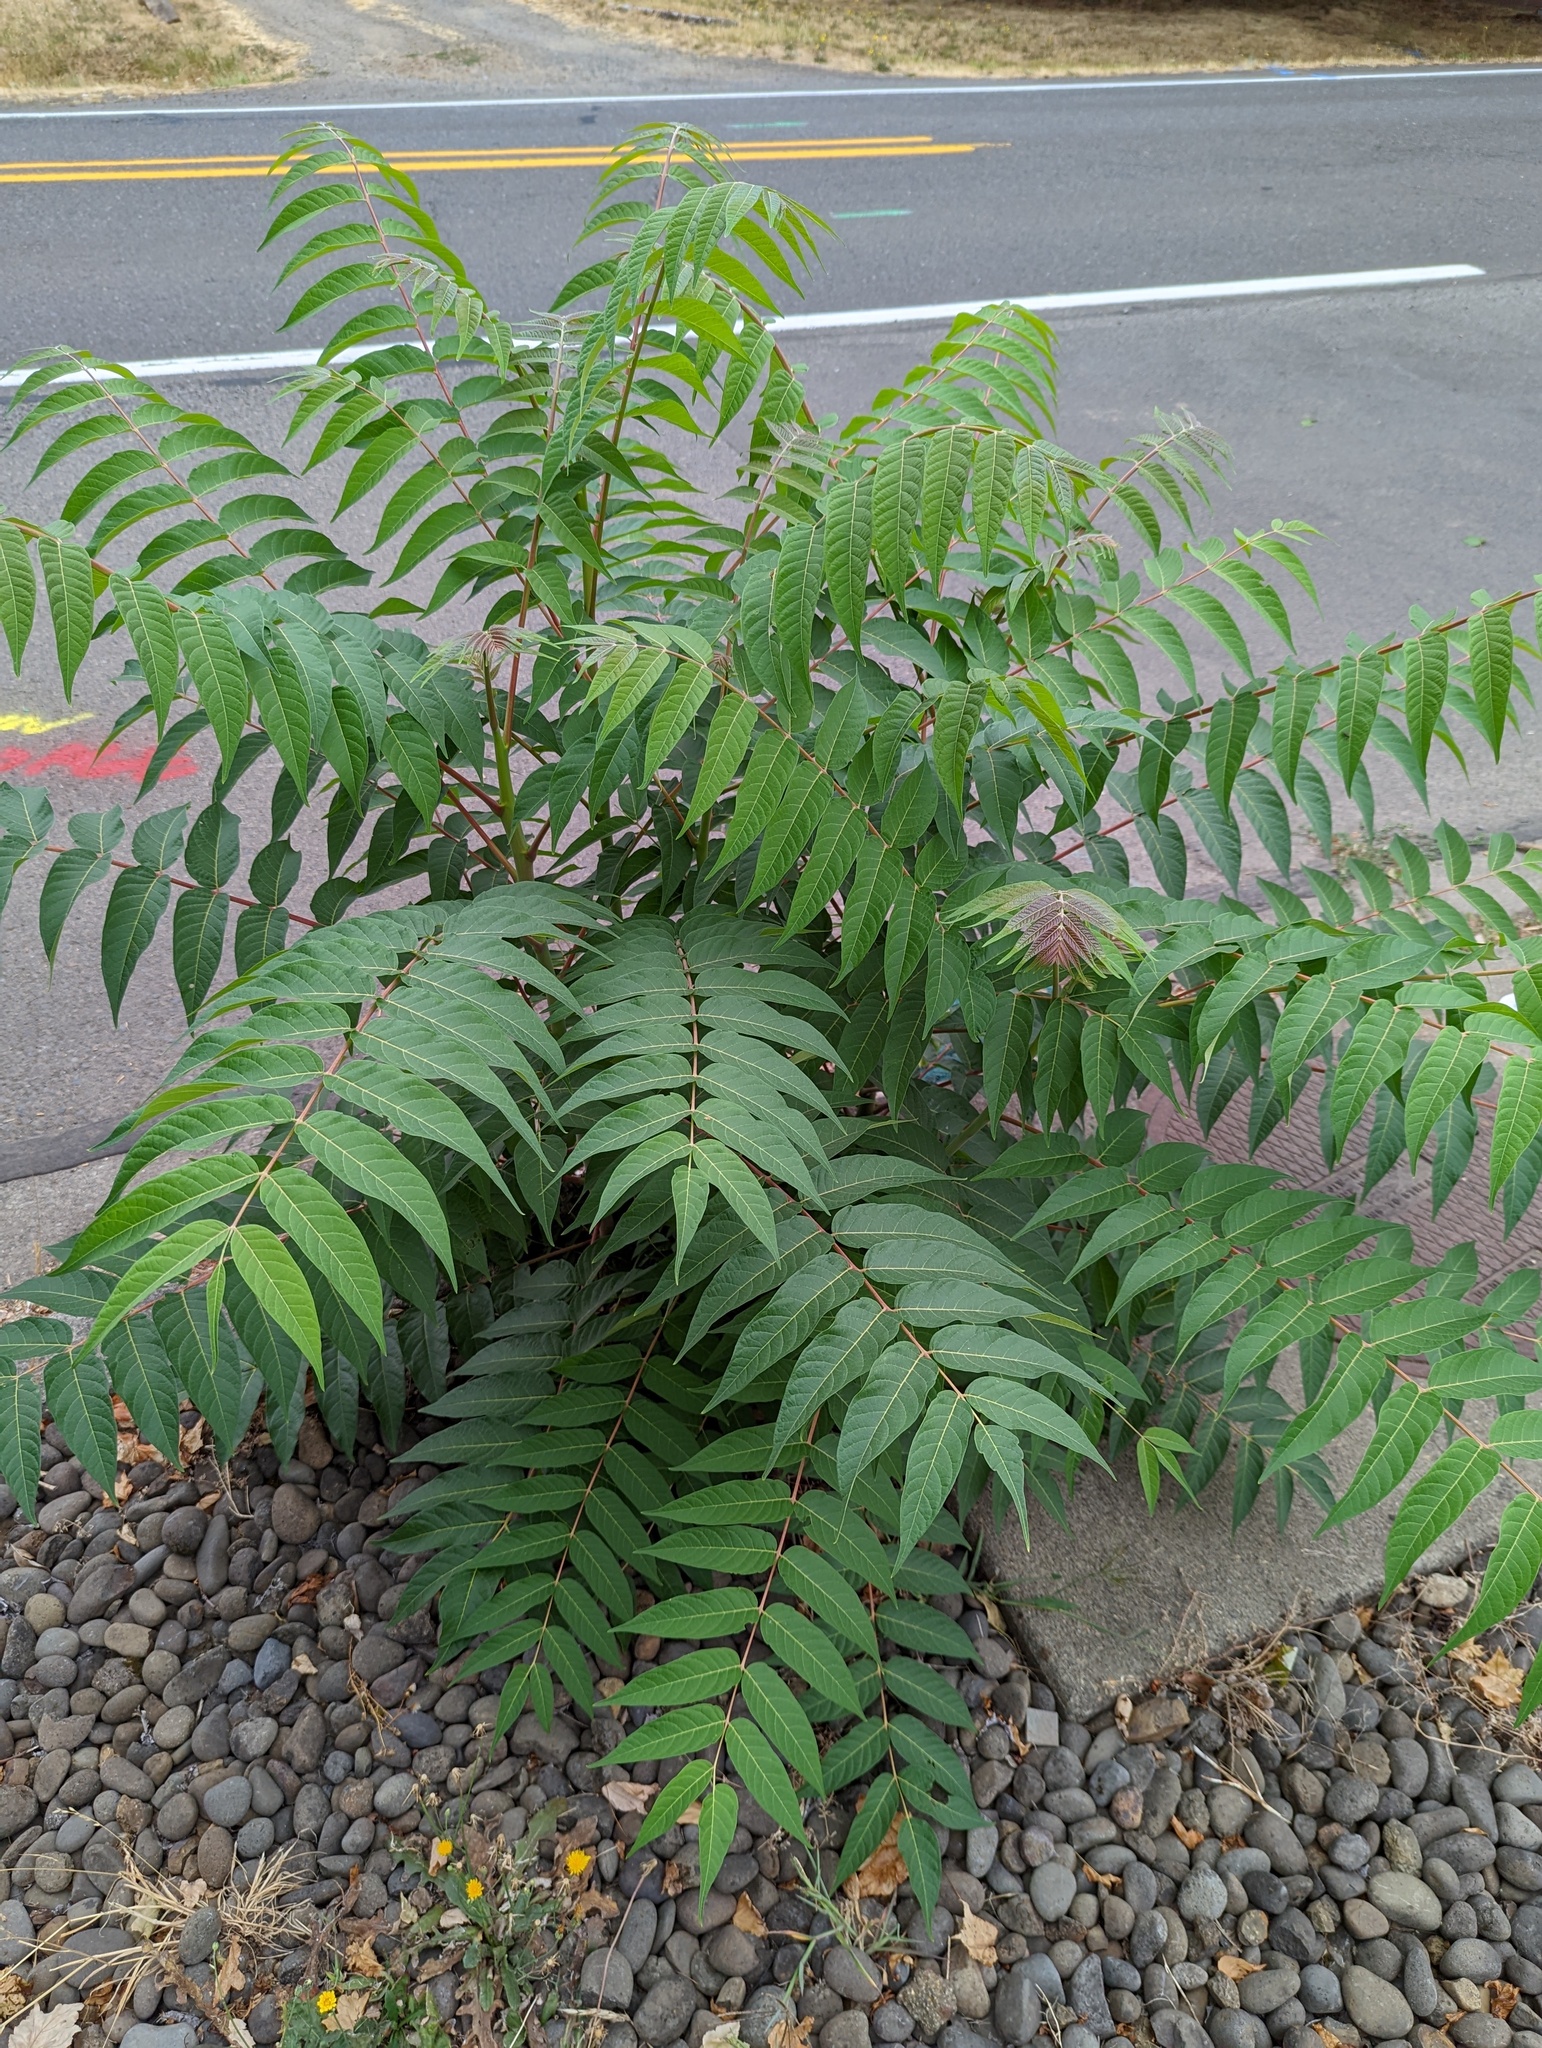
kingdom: Plantae
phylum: Tracheophyta
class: Magnoliopsida
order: Sapindales
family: Simaroubaceae
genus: Ailanthus
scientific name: Ailanthus altissima
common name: Tree-of-heaven
